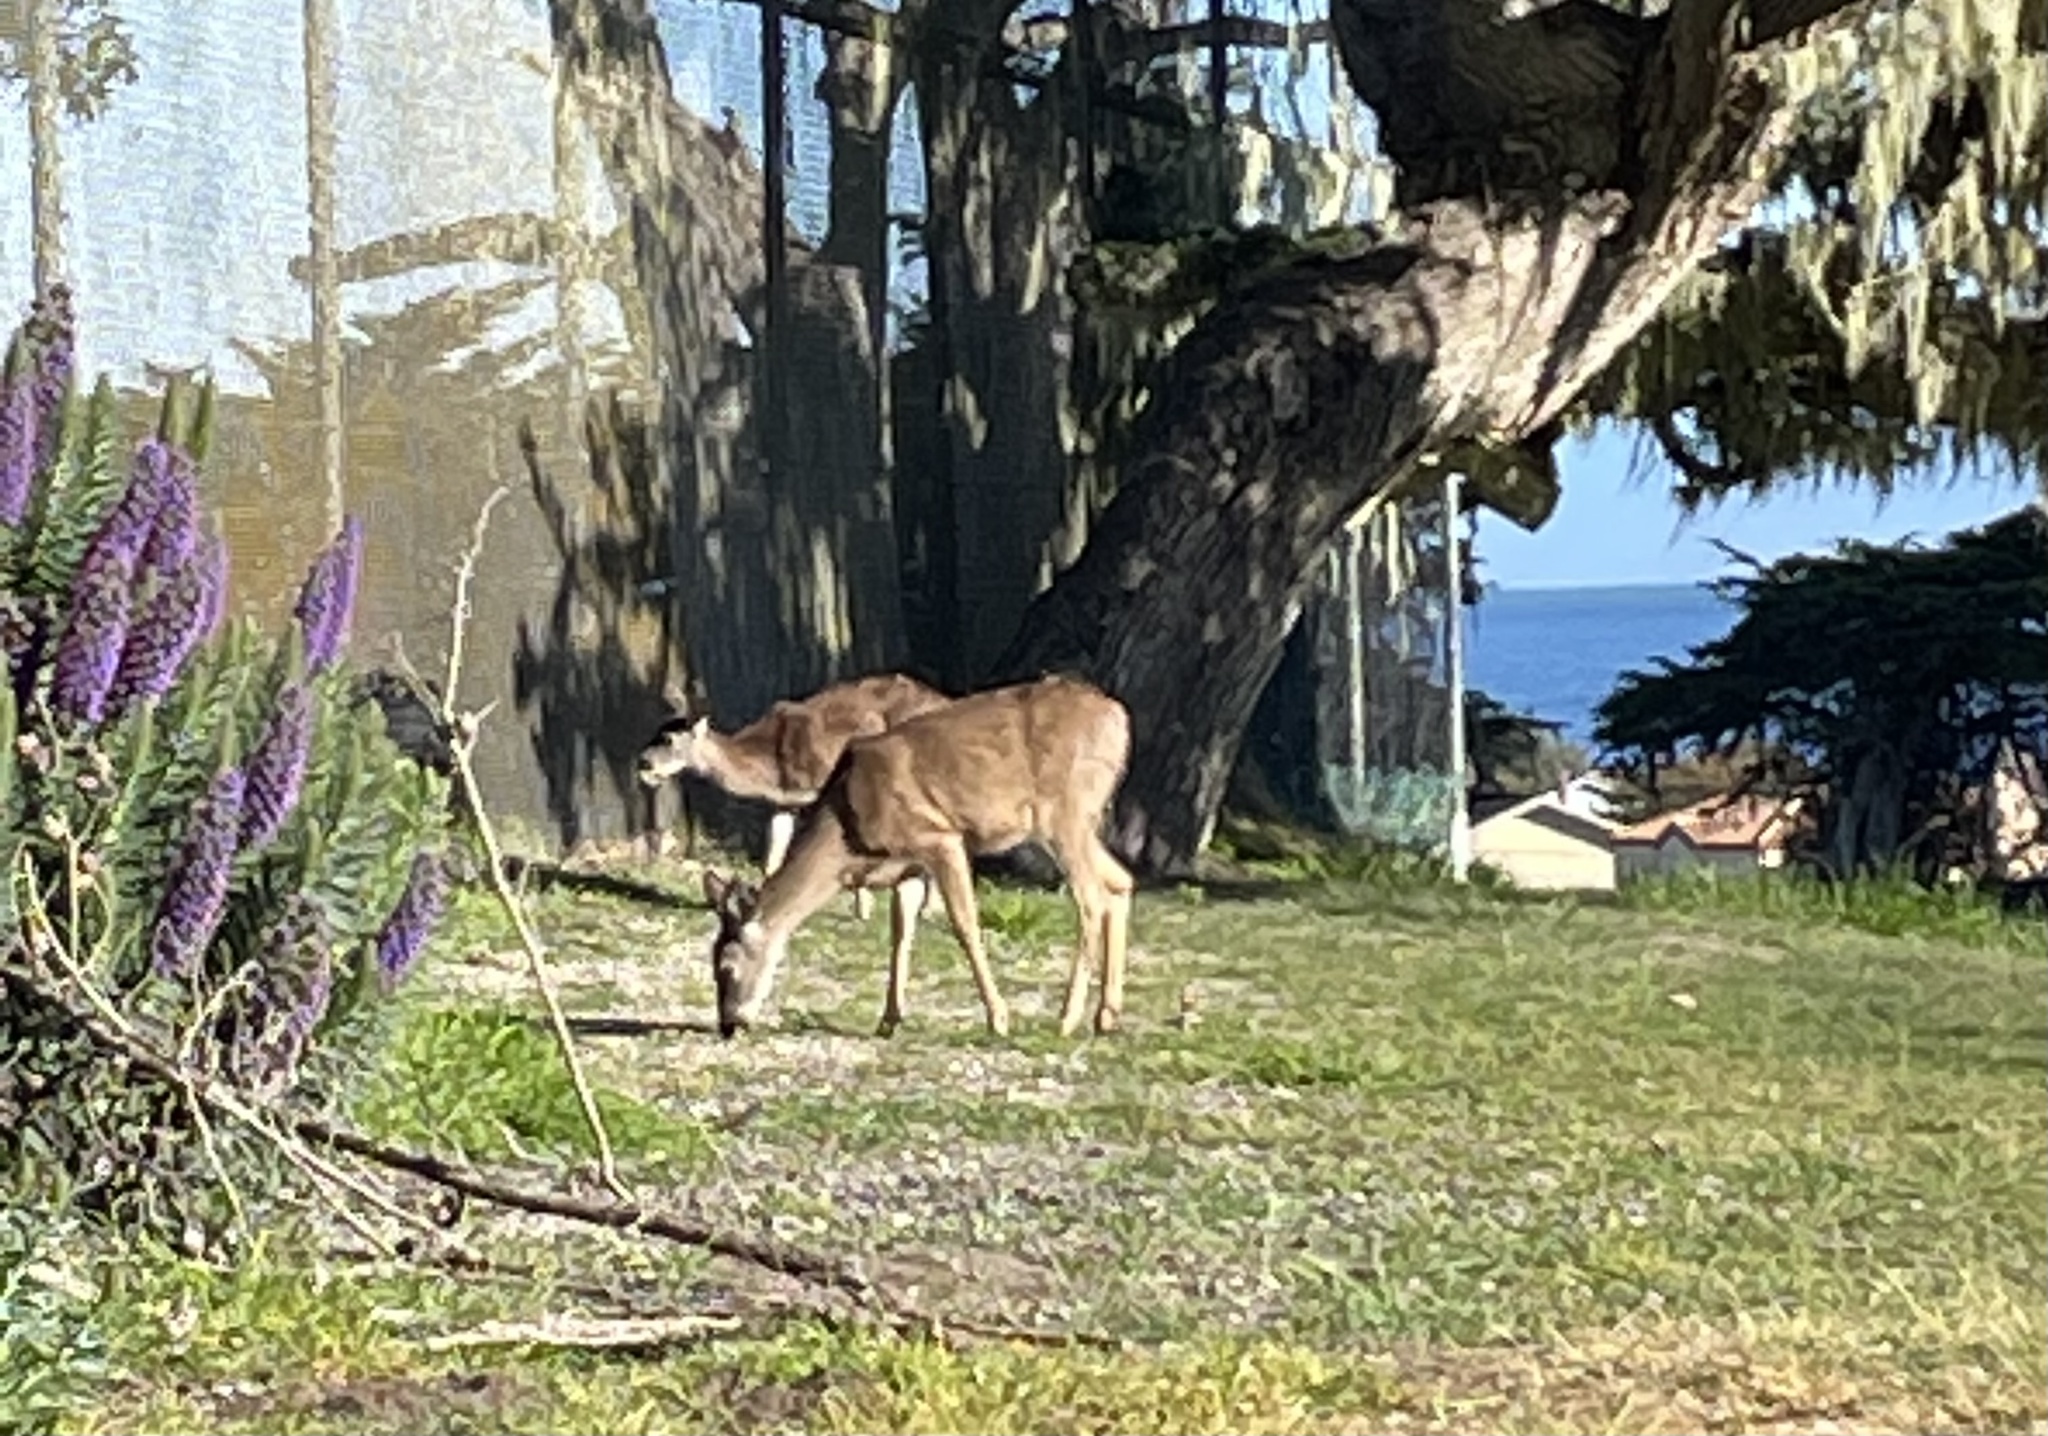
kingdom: Animalia
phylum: Chordata
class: Mammalia
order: Artiodactyla
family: Cervidae
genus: Odocoileus
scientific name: Odocoileus hemionus
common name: Mule deer
